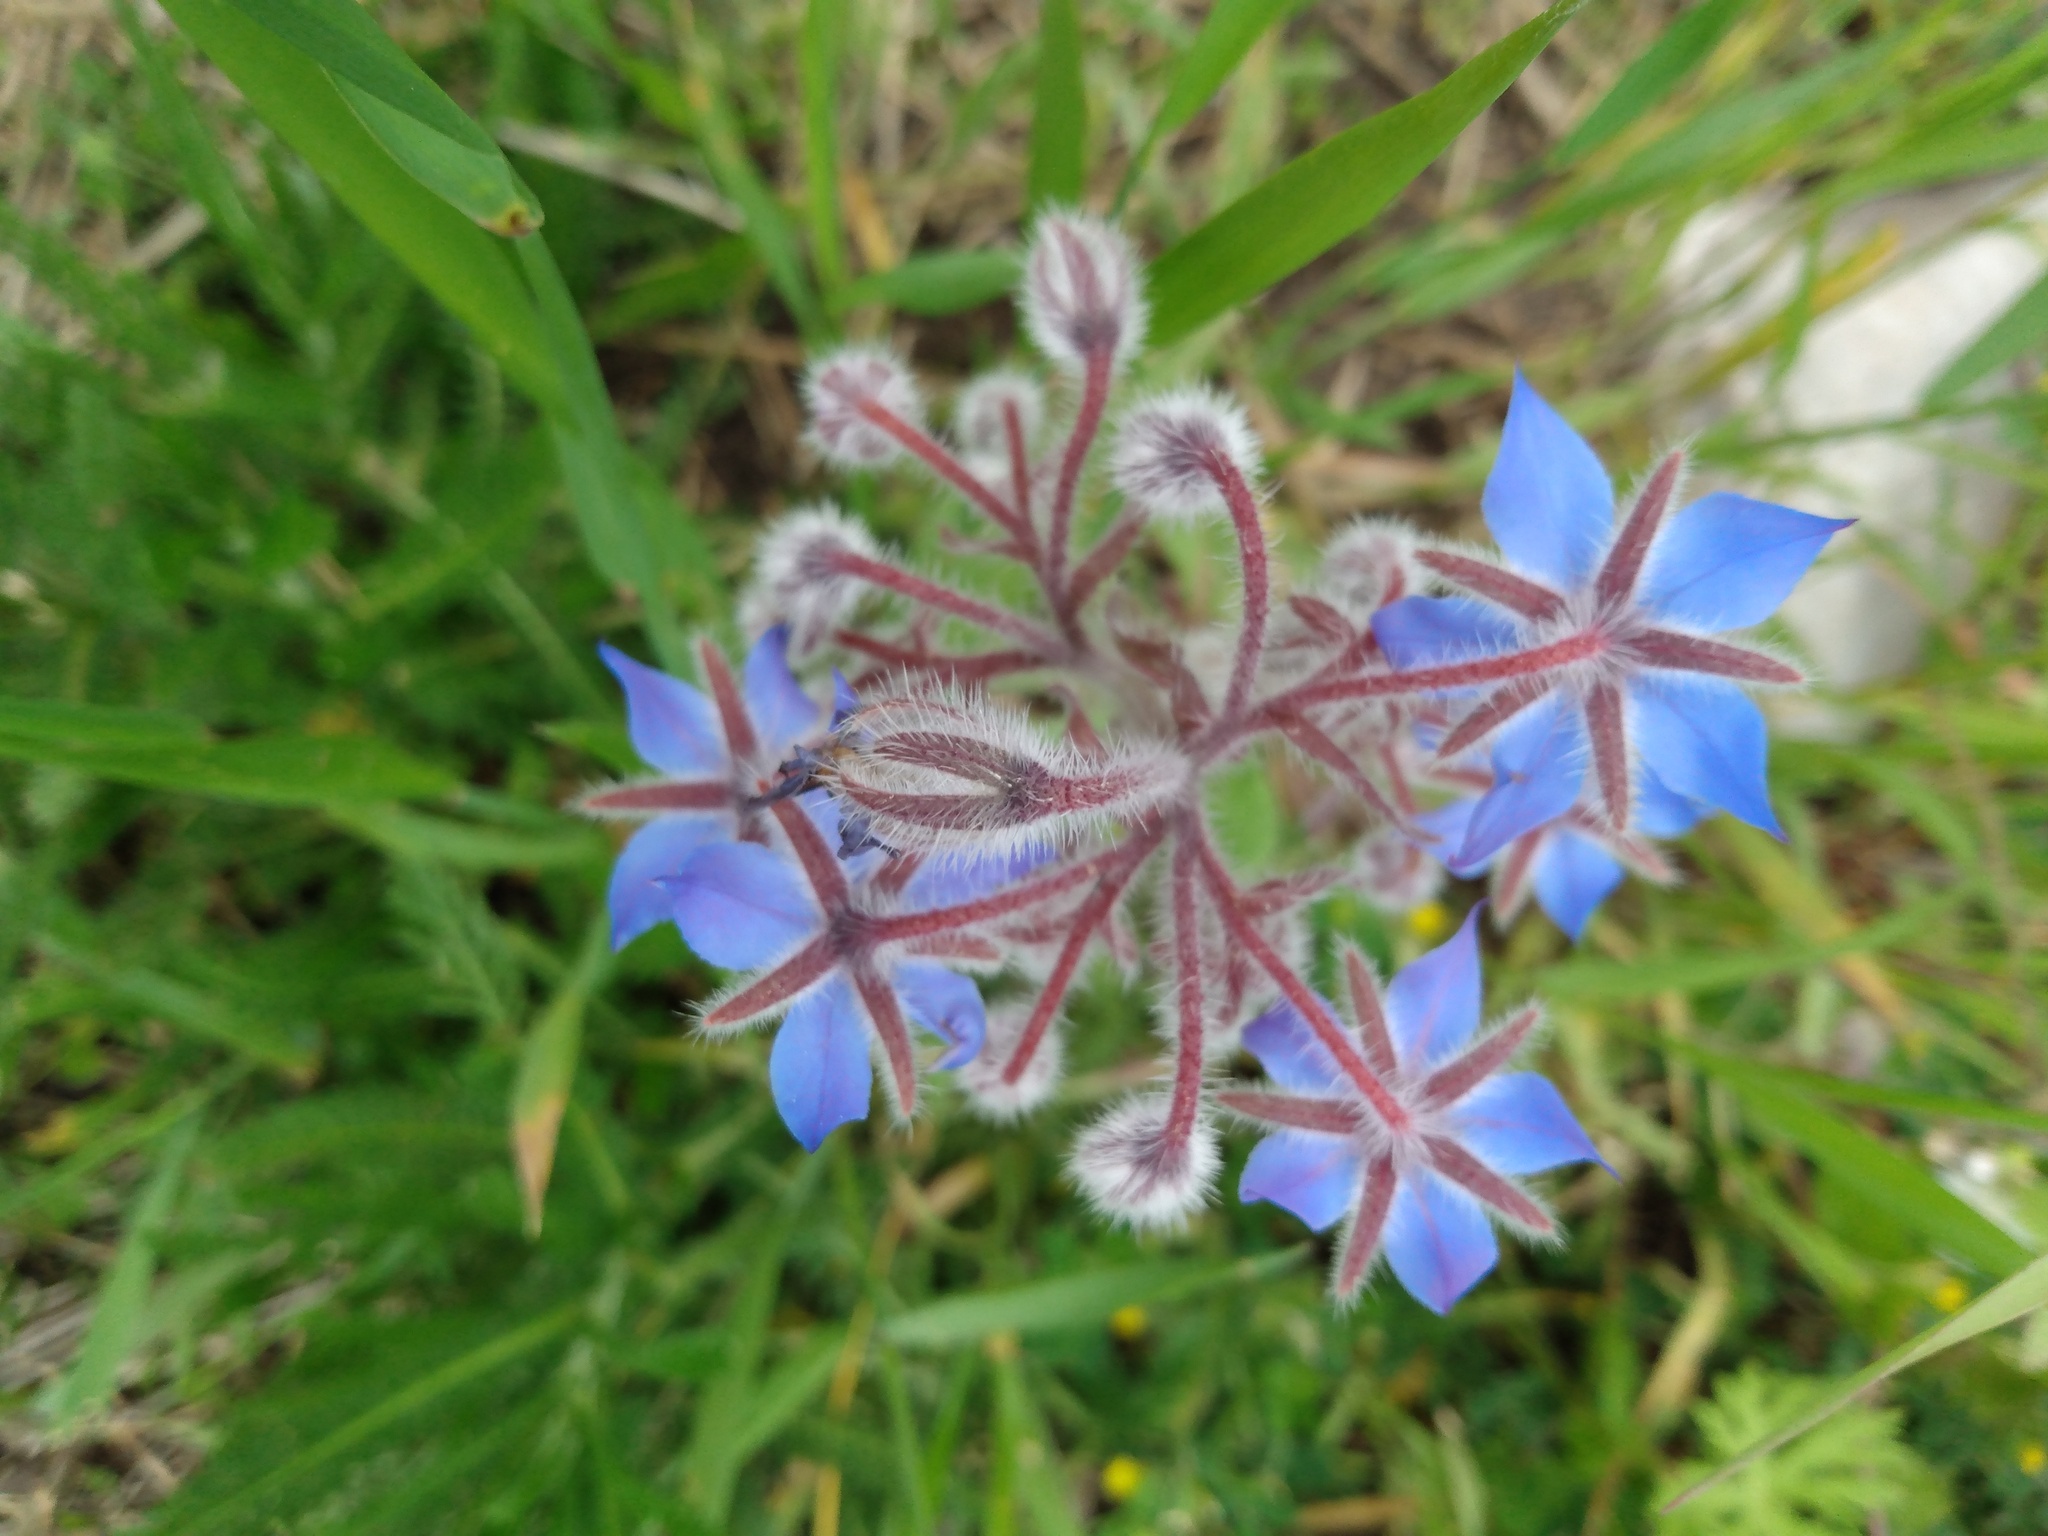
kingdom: Plantae
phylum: Tracheophyta
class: Magnoliopsida
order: Boraginales
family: Boraginaceae
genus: Borago
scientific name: Borago officinalis
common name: Borage
